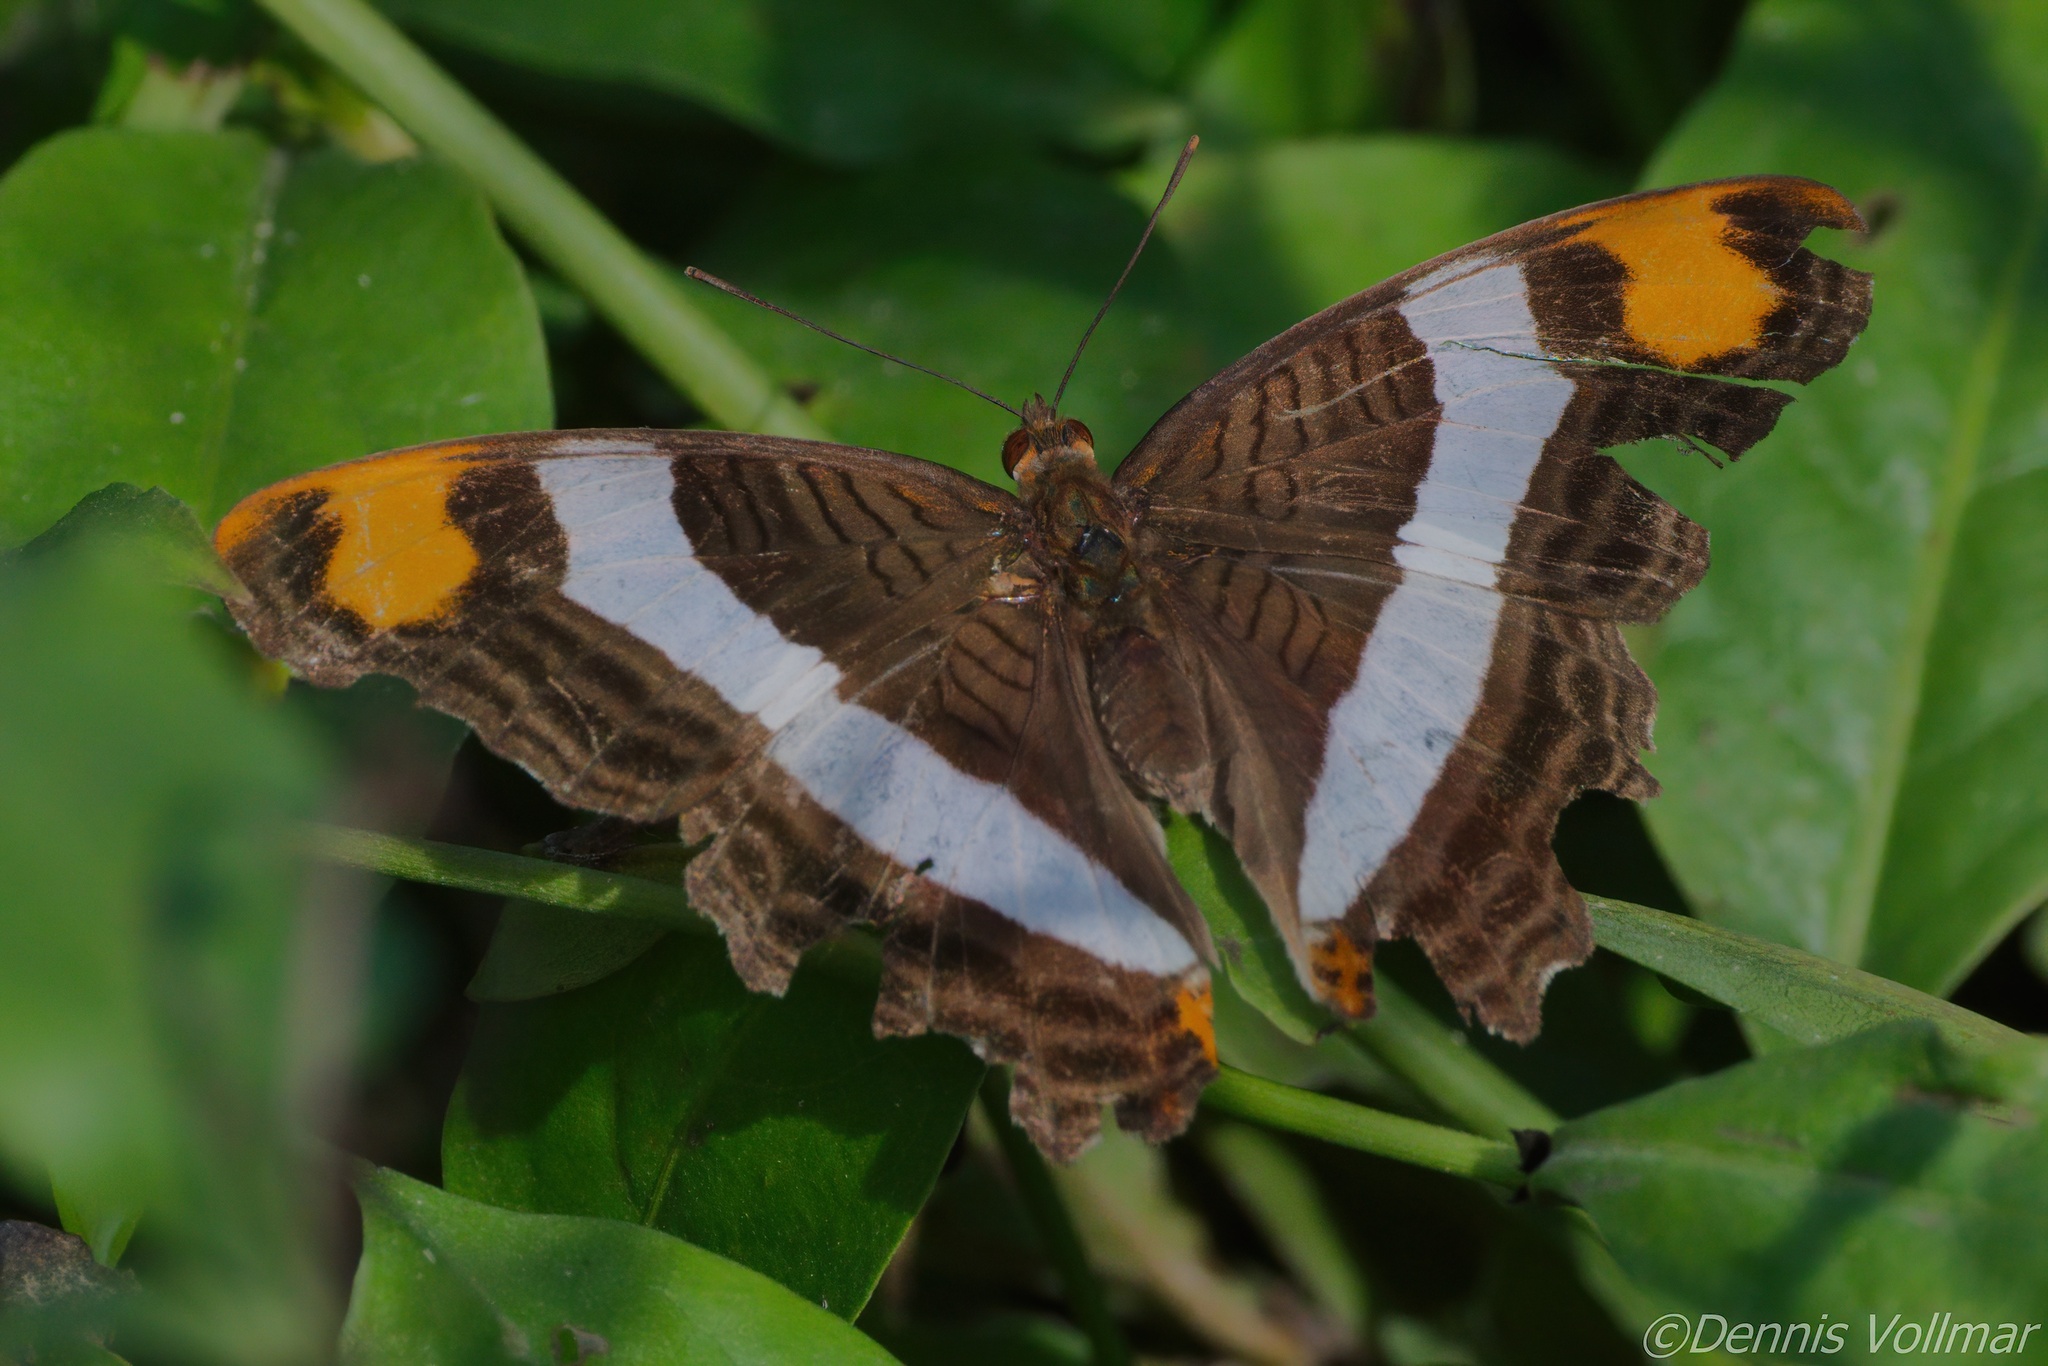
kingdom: Animalia
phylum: Arthropoda
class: Insecta
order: Lepidoptera
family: Nymphalidae
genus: Limenitis
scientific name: Limenitis fessonia
